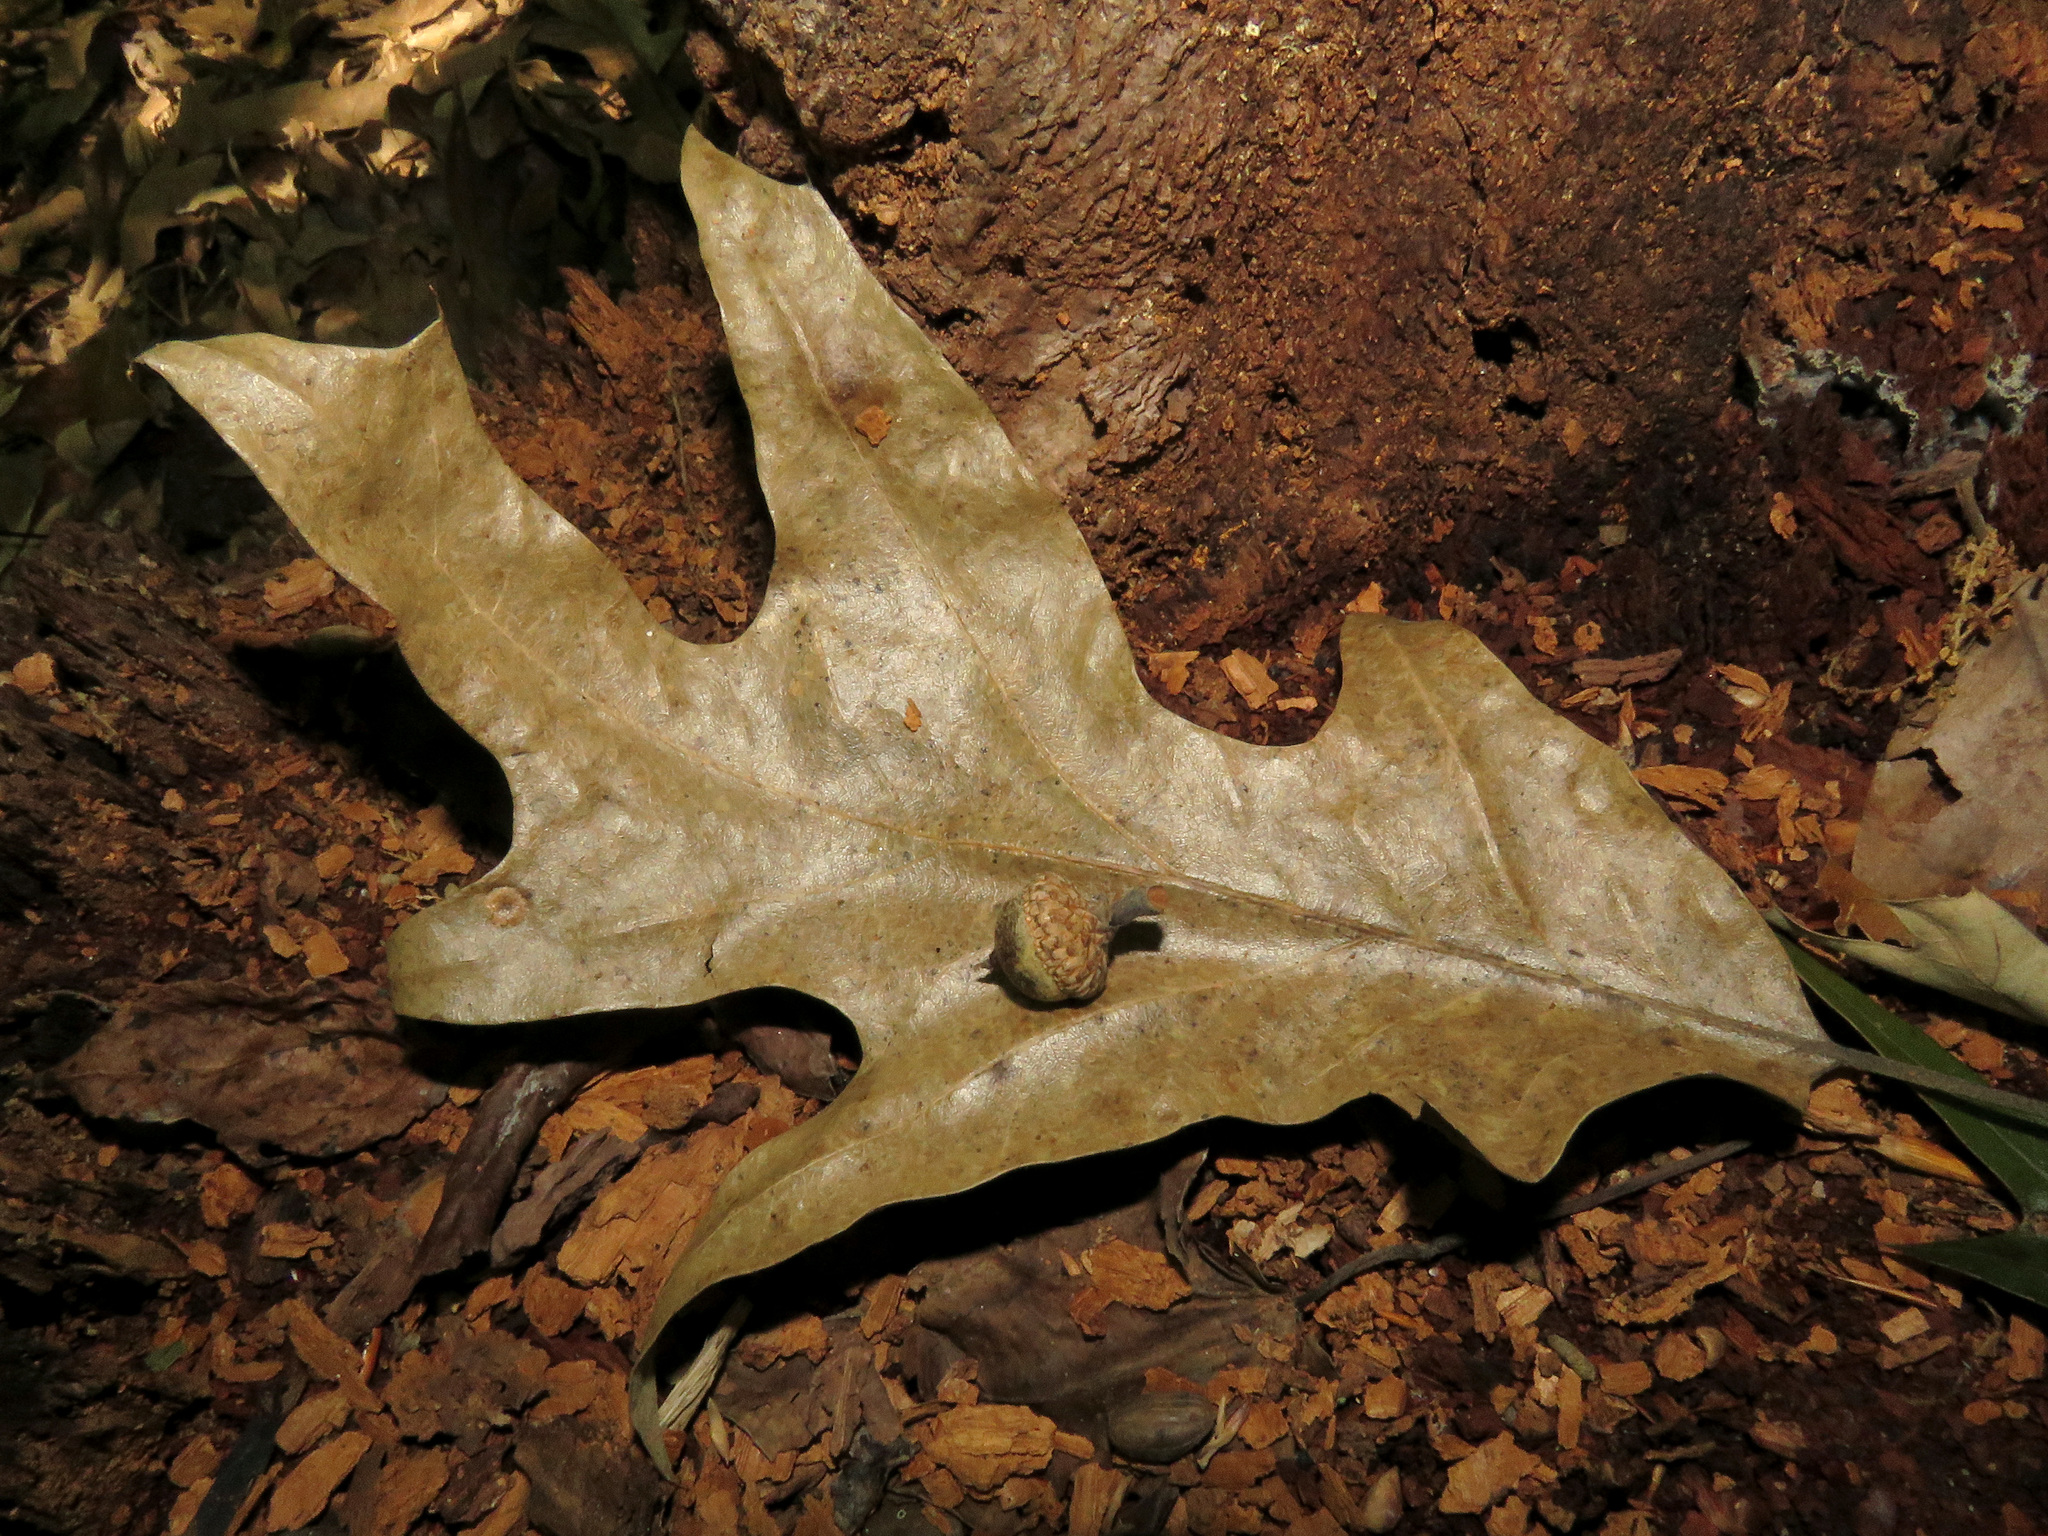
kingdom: Plantae
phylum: Tracheophyta
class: Magnoliopsida
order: Fagales
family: Fagaceae
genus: Quercus
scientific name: Quercus falcata
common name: Southern red oak
